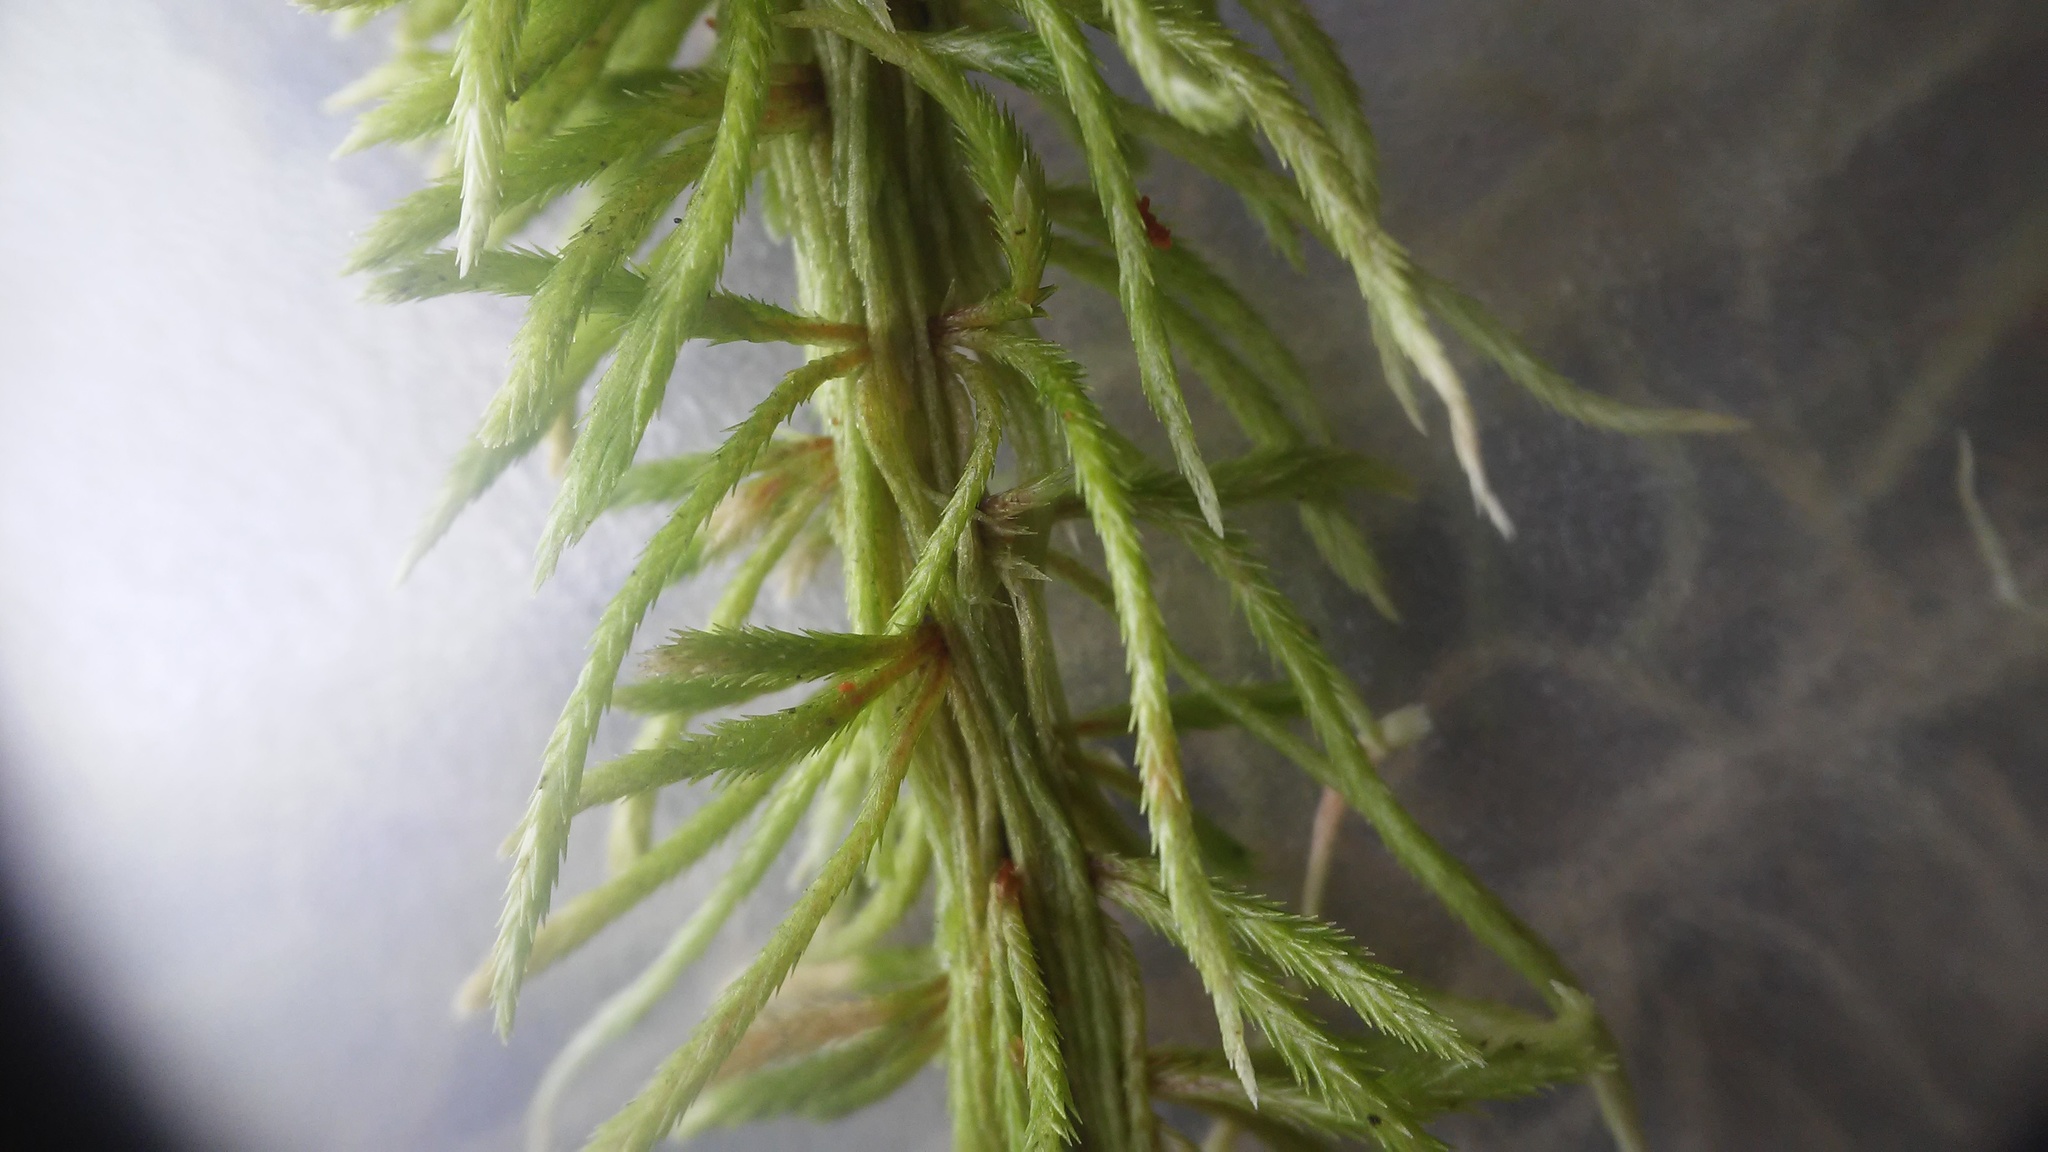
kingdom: Plantae
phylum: Bryophyta
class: Sphagnopsida
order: Sphagnales
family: Sphagnaceae
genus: Sphagnum
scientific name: Sphagnum wulfianum
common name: Wulf's peat moss
